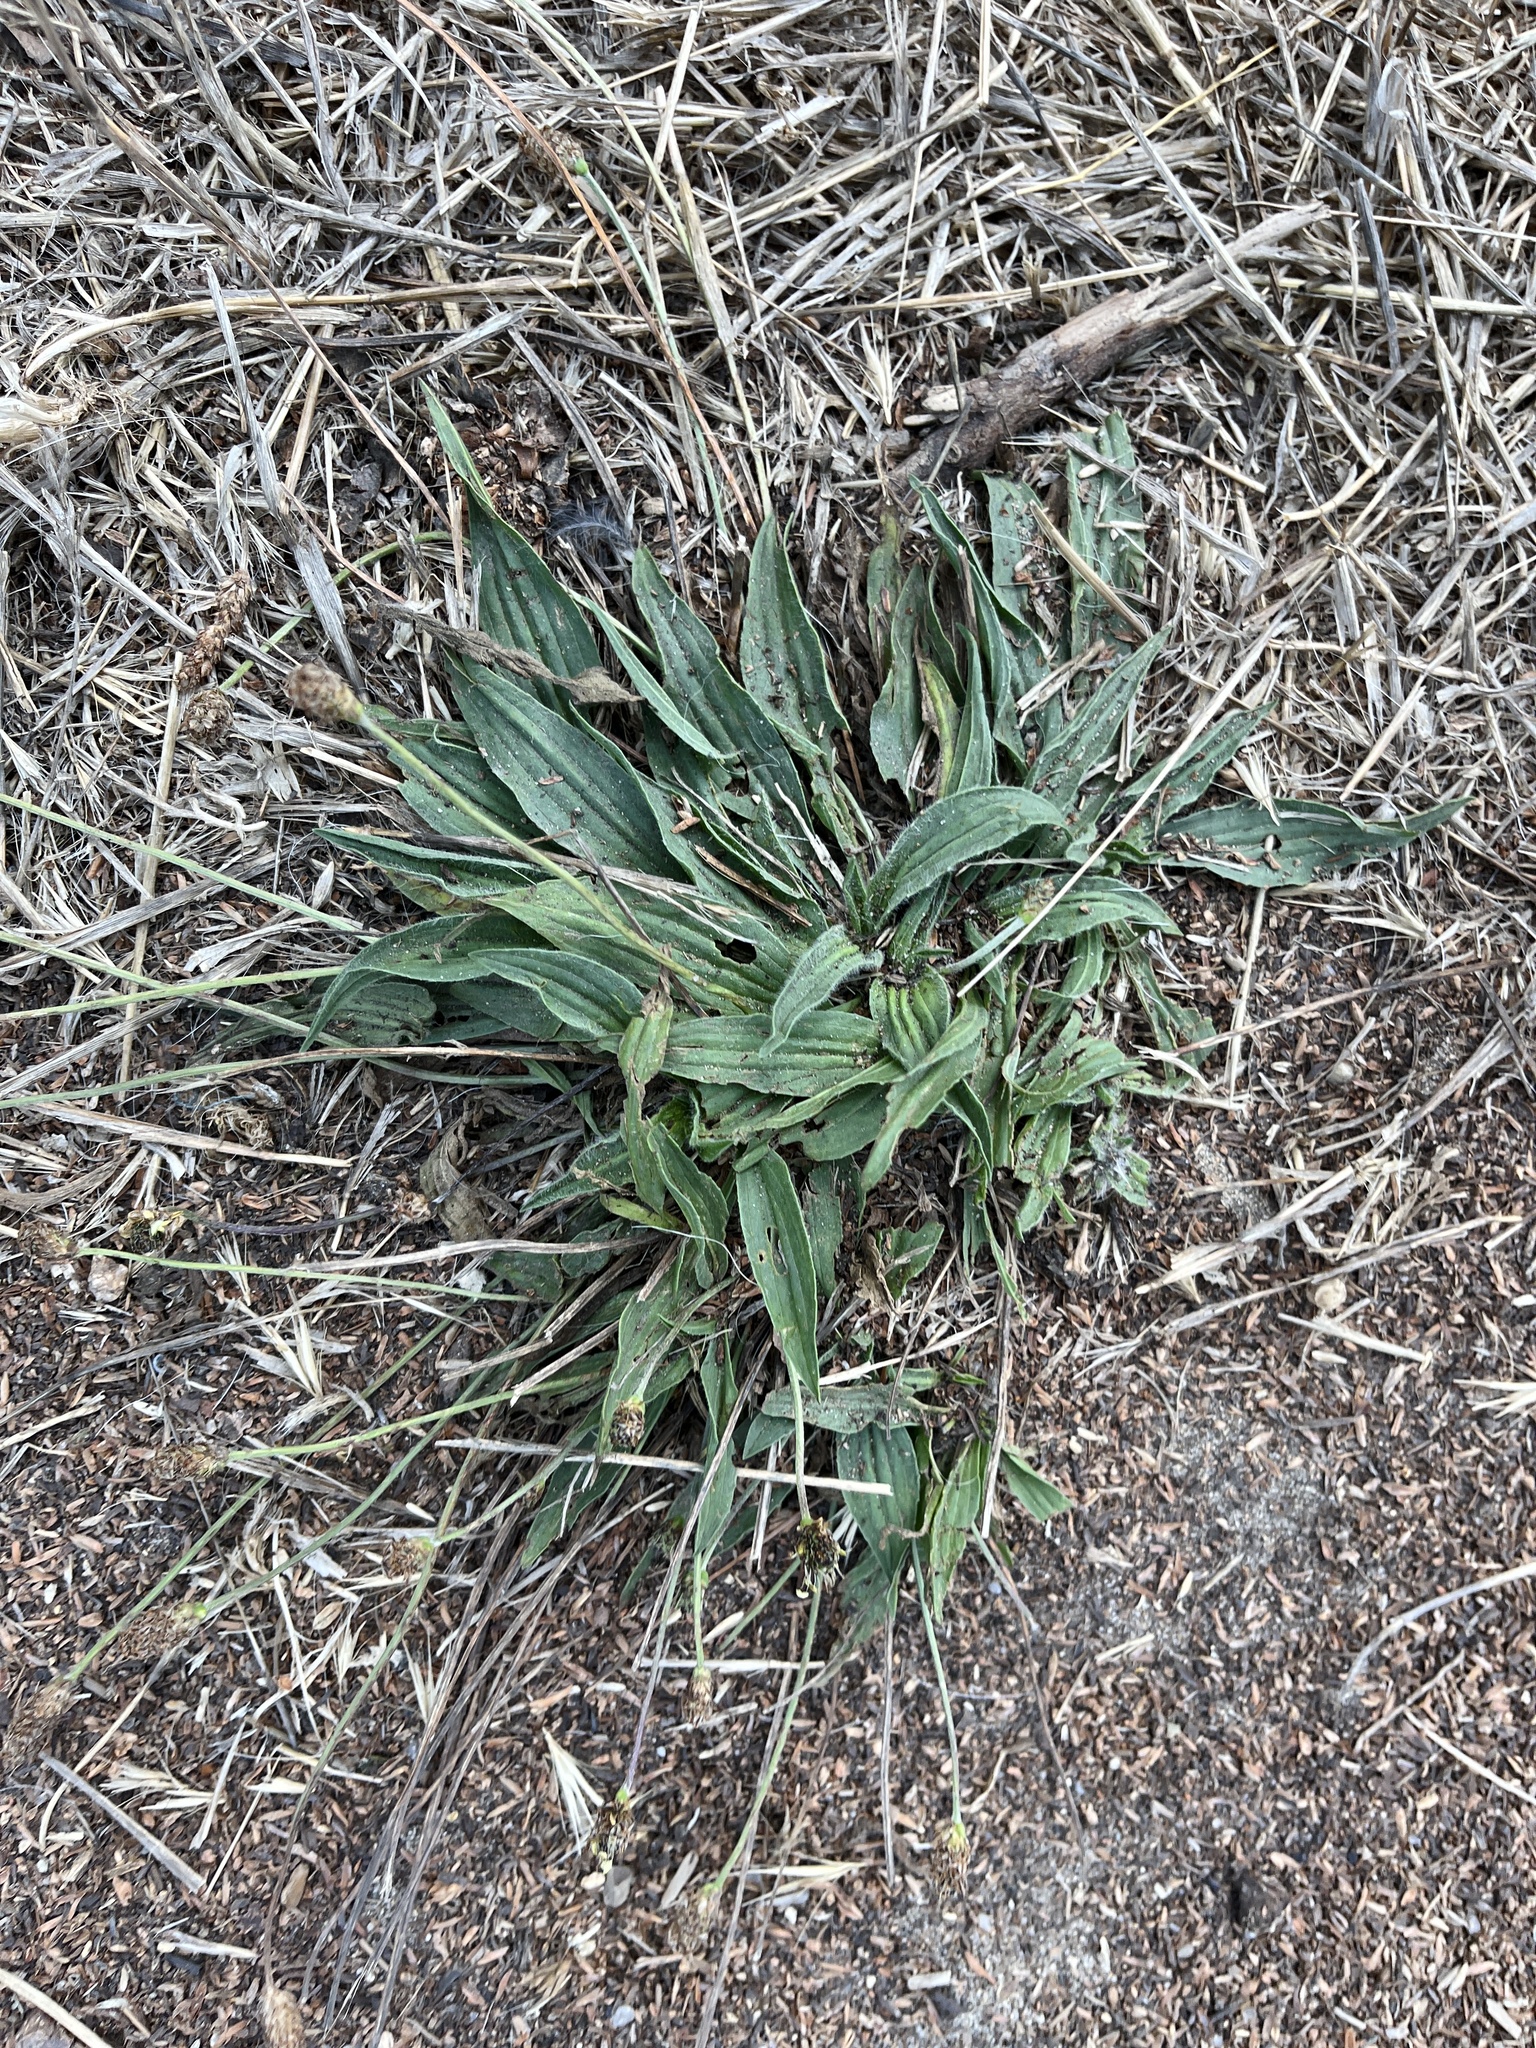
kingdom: Plantae
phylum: Tracheophyta
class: Magnoliopsida
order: Lamiales
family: Plantaginaceae
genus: Plantago
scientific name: Plantago lanceolata
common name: Ribwort plantain
